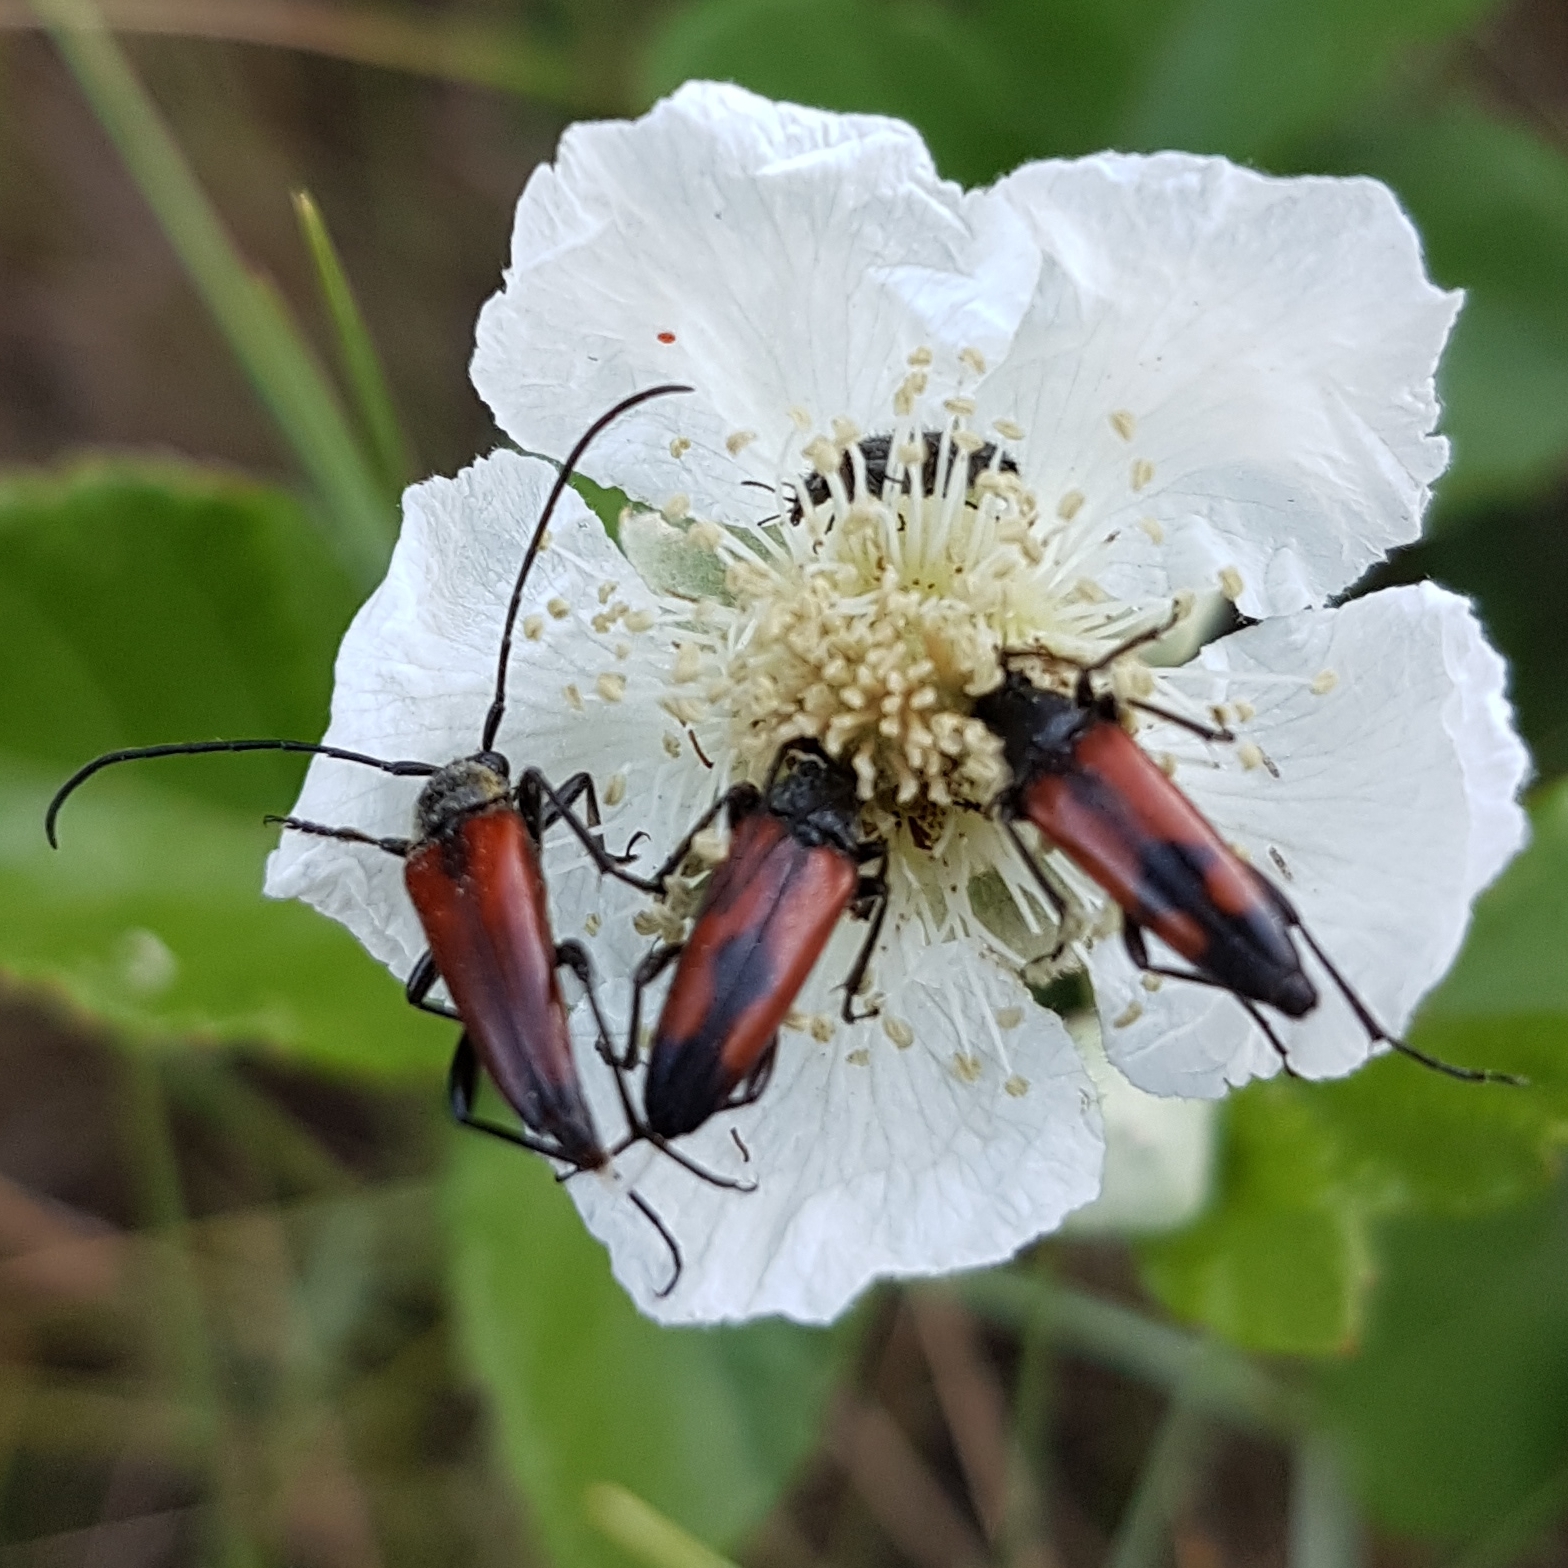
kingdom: Animalia
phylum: Arthropoda
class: Insecta
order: Coleoptera
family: Cerambycidae
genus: Stenurella
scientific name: Stenurella bifasciata
